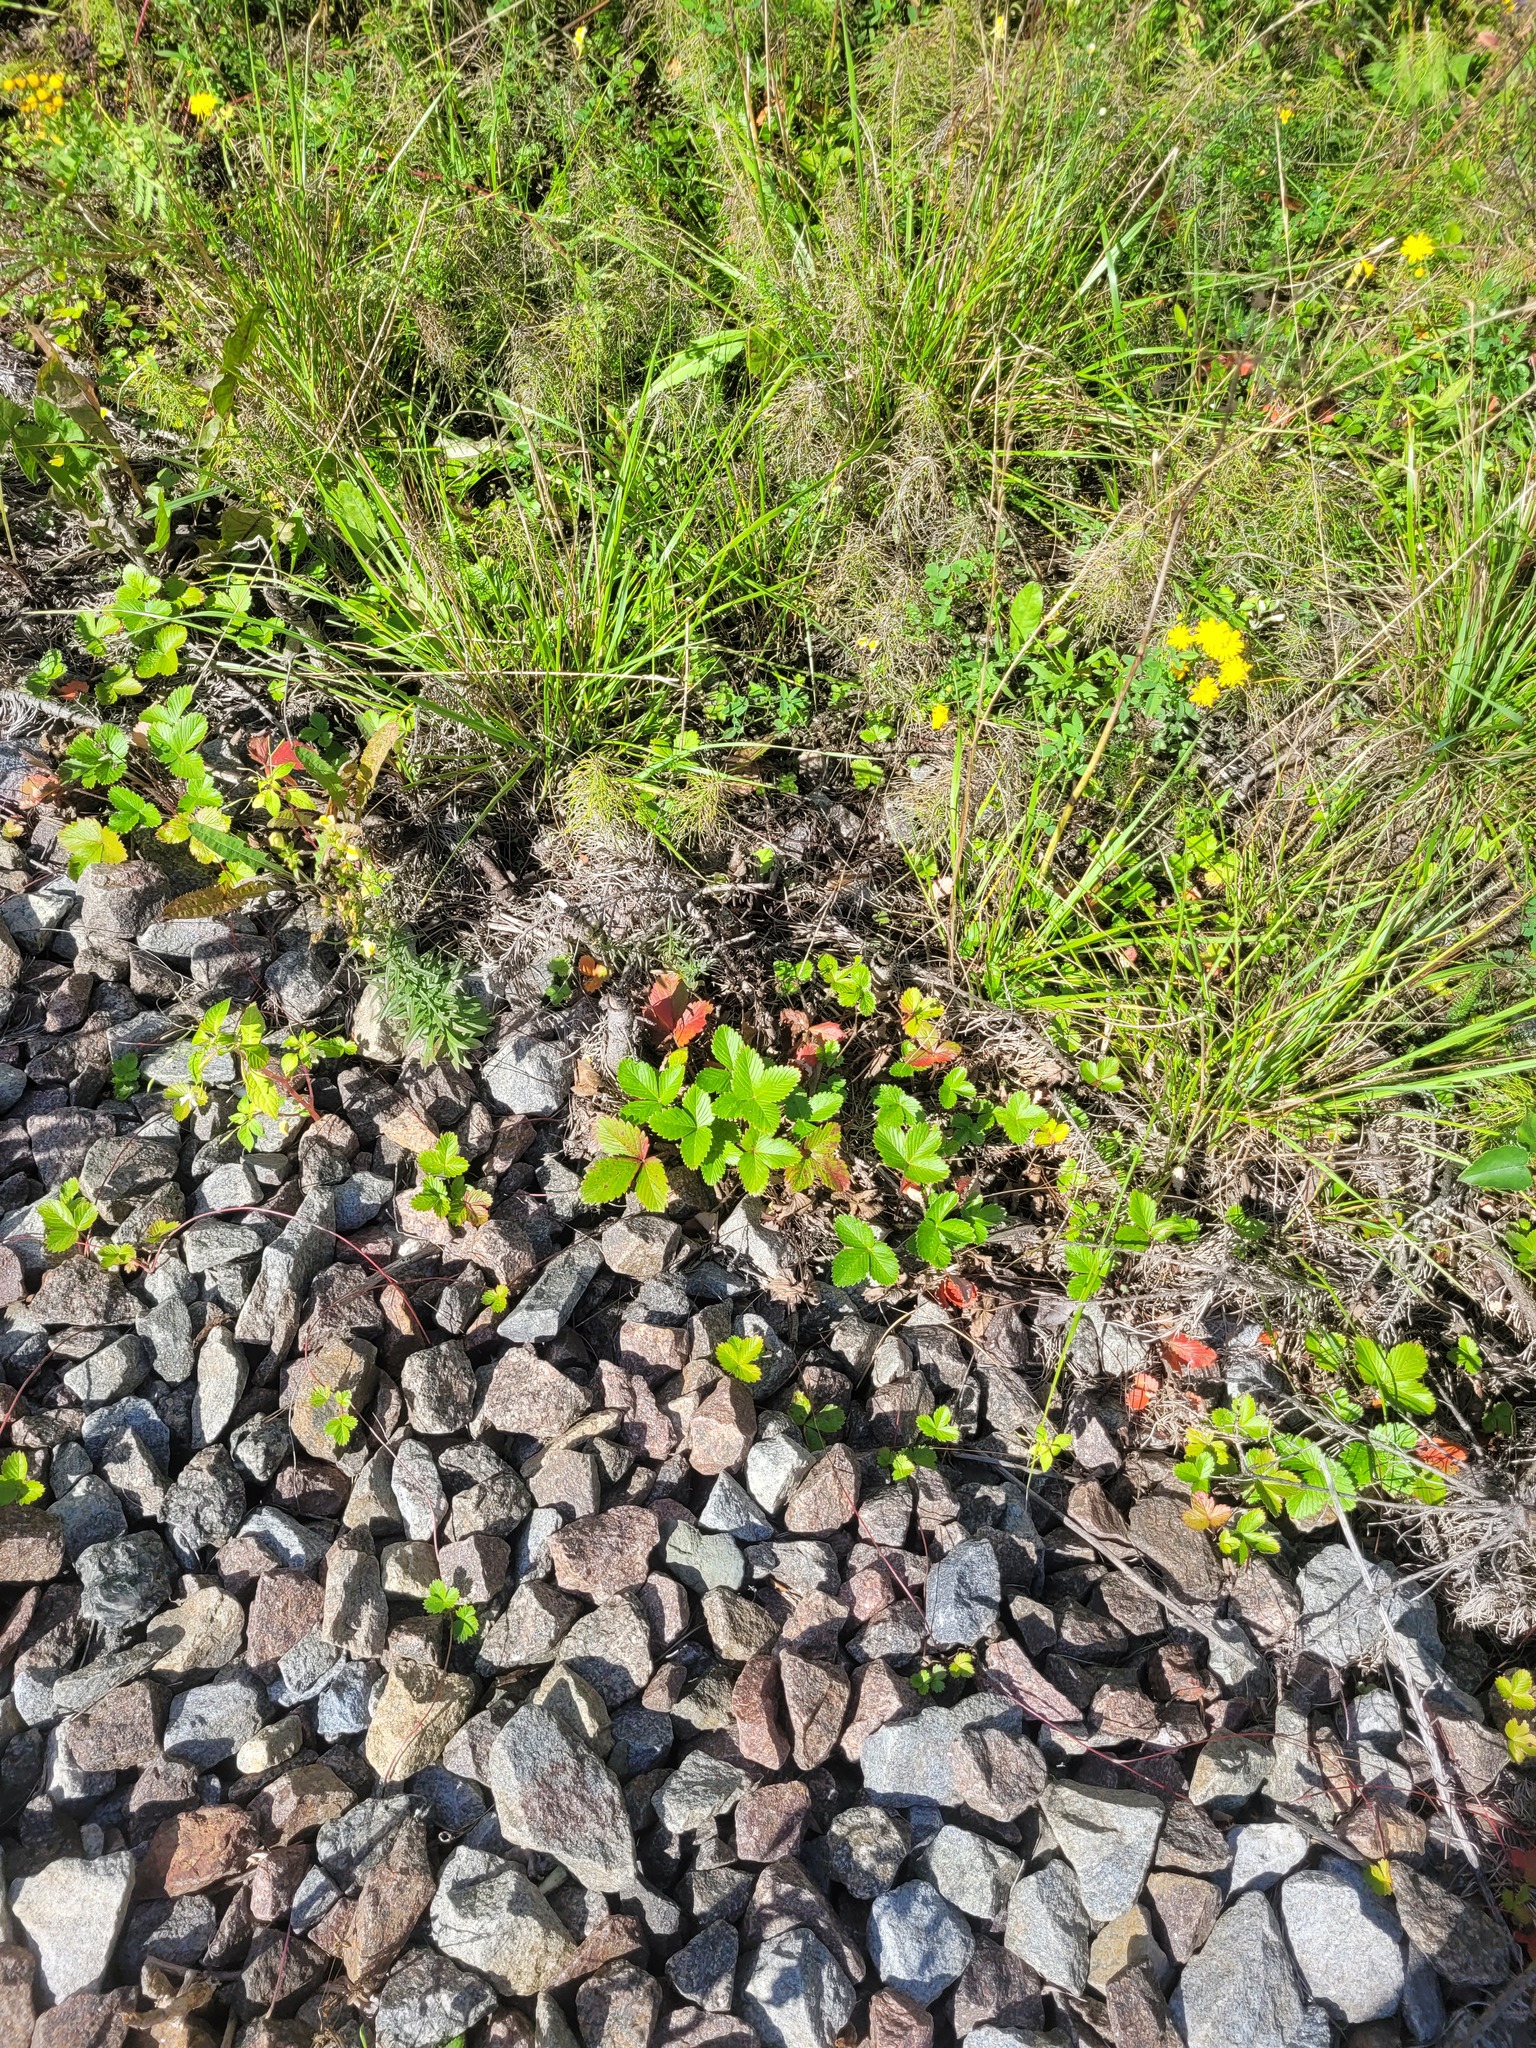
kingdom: Plantae
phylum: Tracheophyta
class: Magnoliopsida
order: Rosales
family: Rosaceae
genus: Fragaria
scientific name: Fragaria viridis
